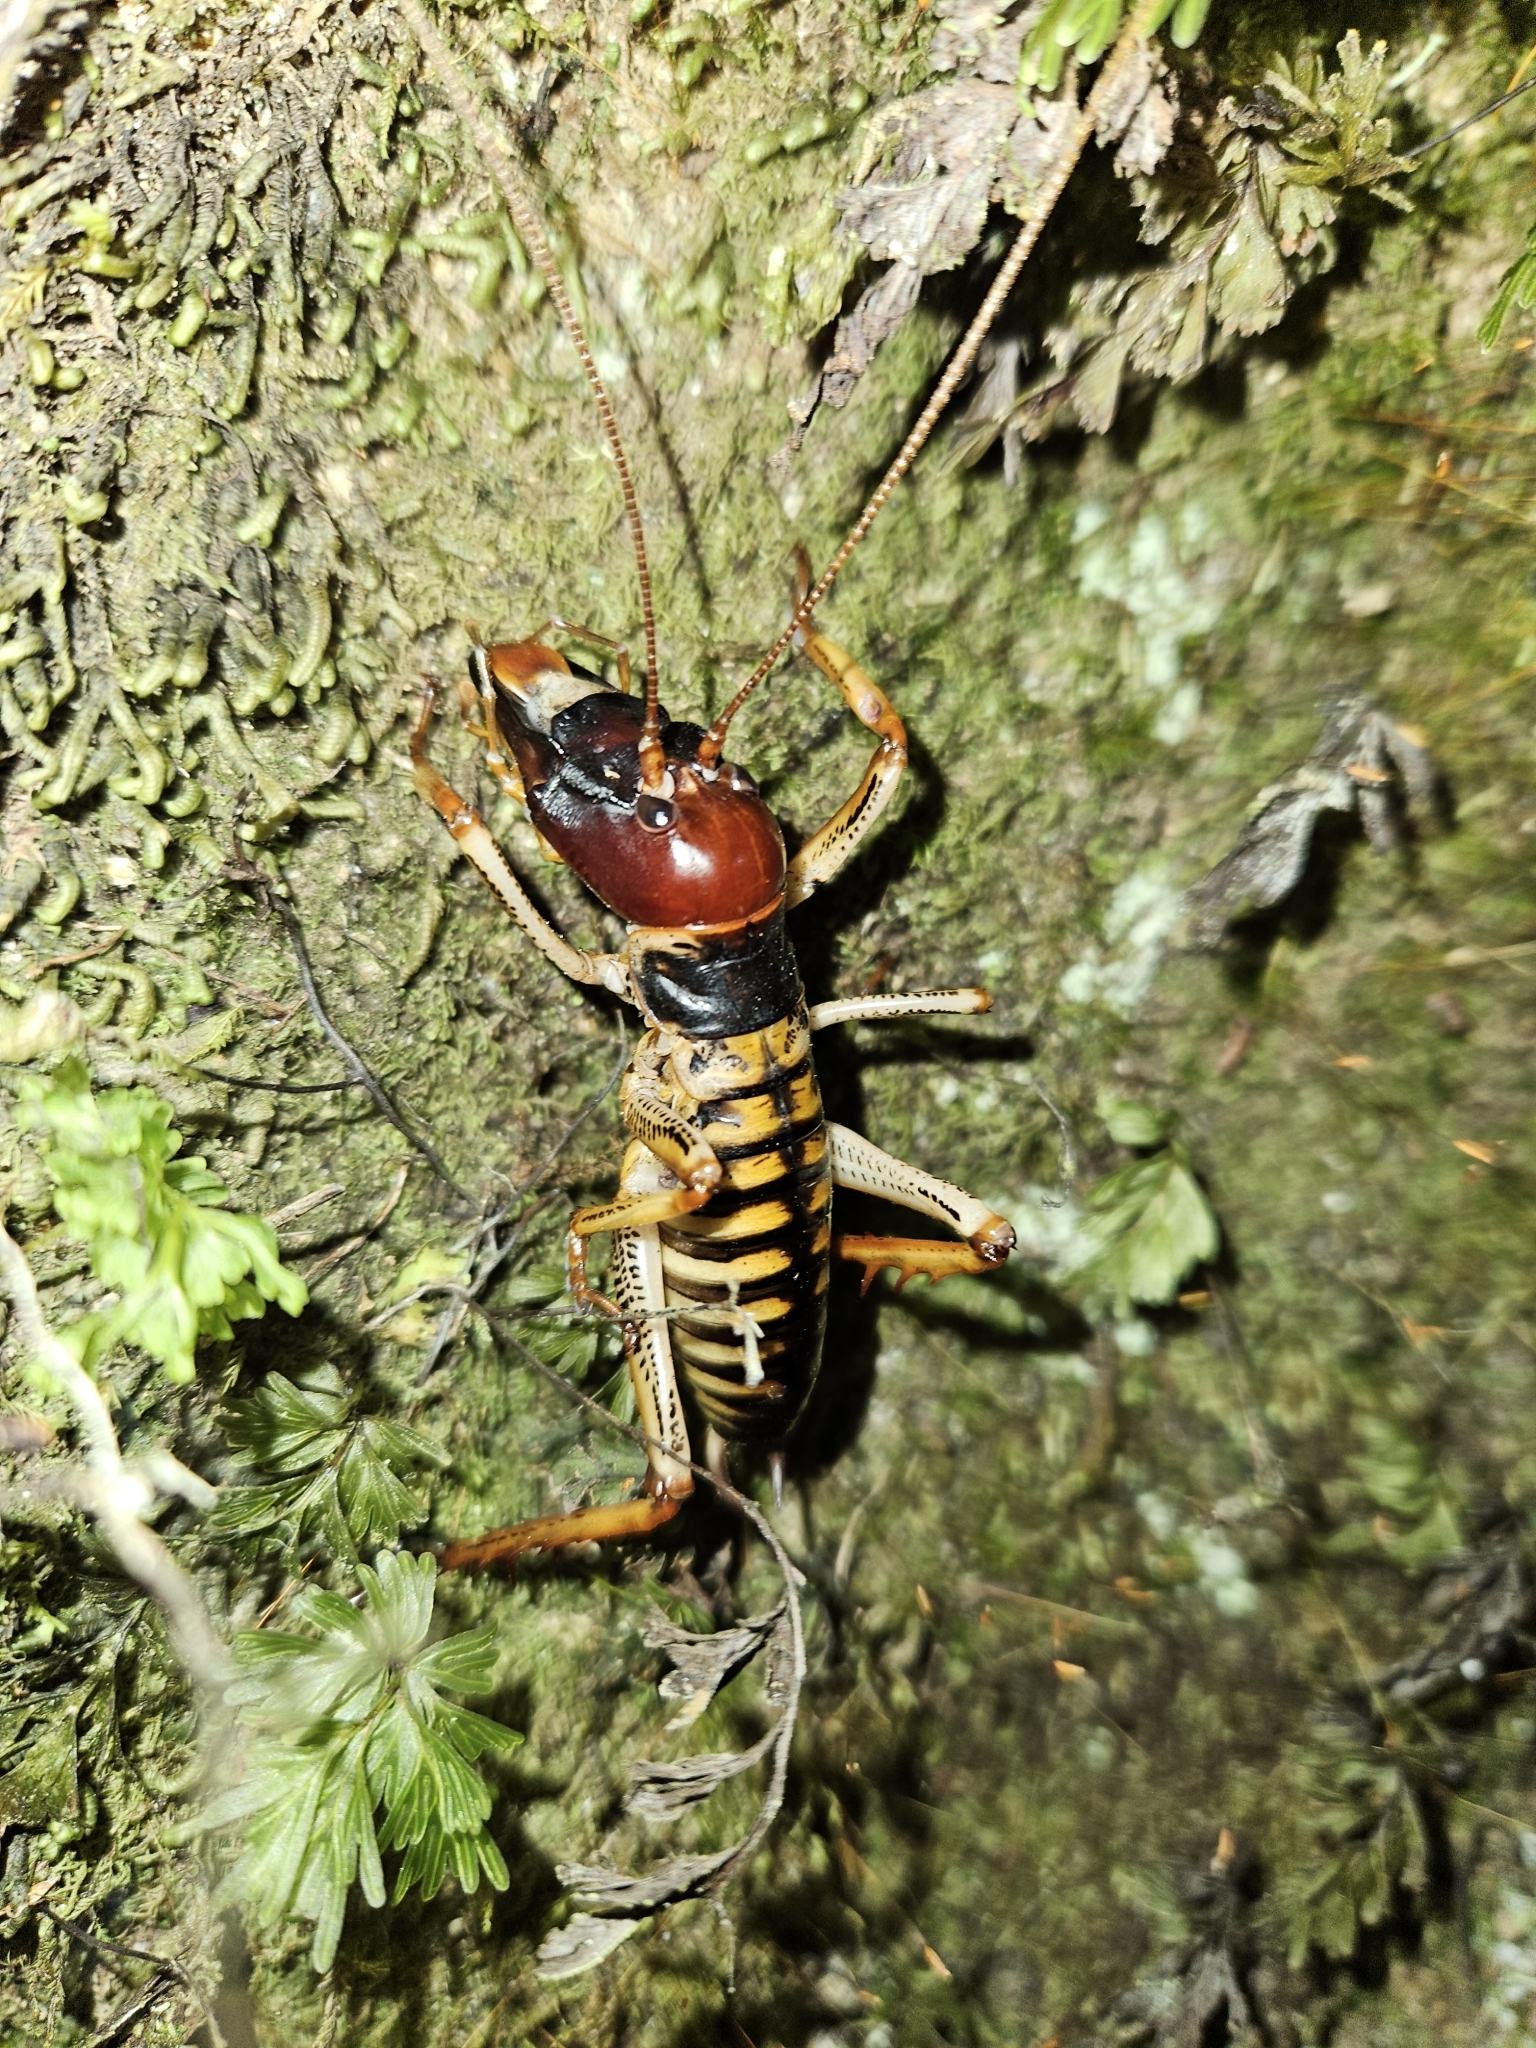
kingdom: Animalia
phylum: Arthropoda
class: Insecta
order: Orthoptera
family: Anostostomatidae
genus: Hemideina
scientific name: Hemideina crassidens
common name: Wellington tree weta
